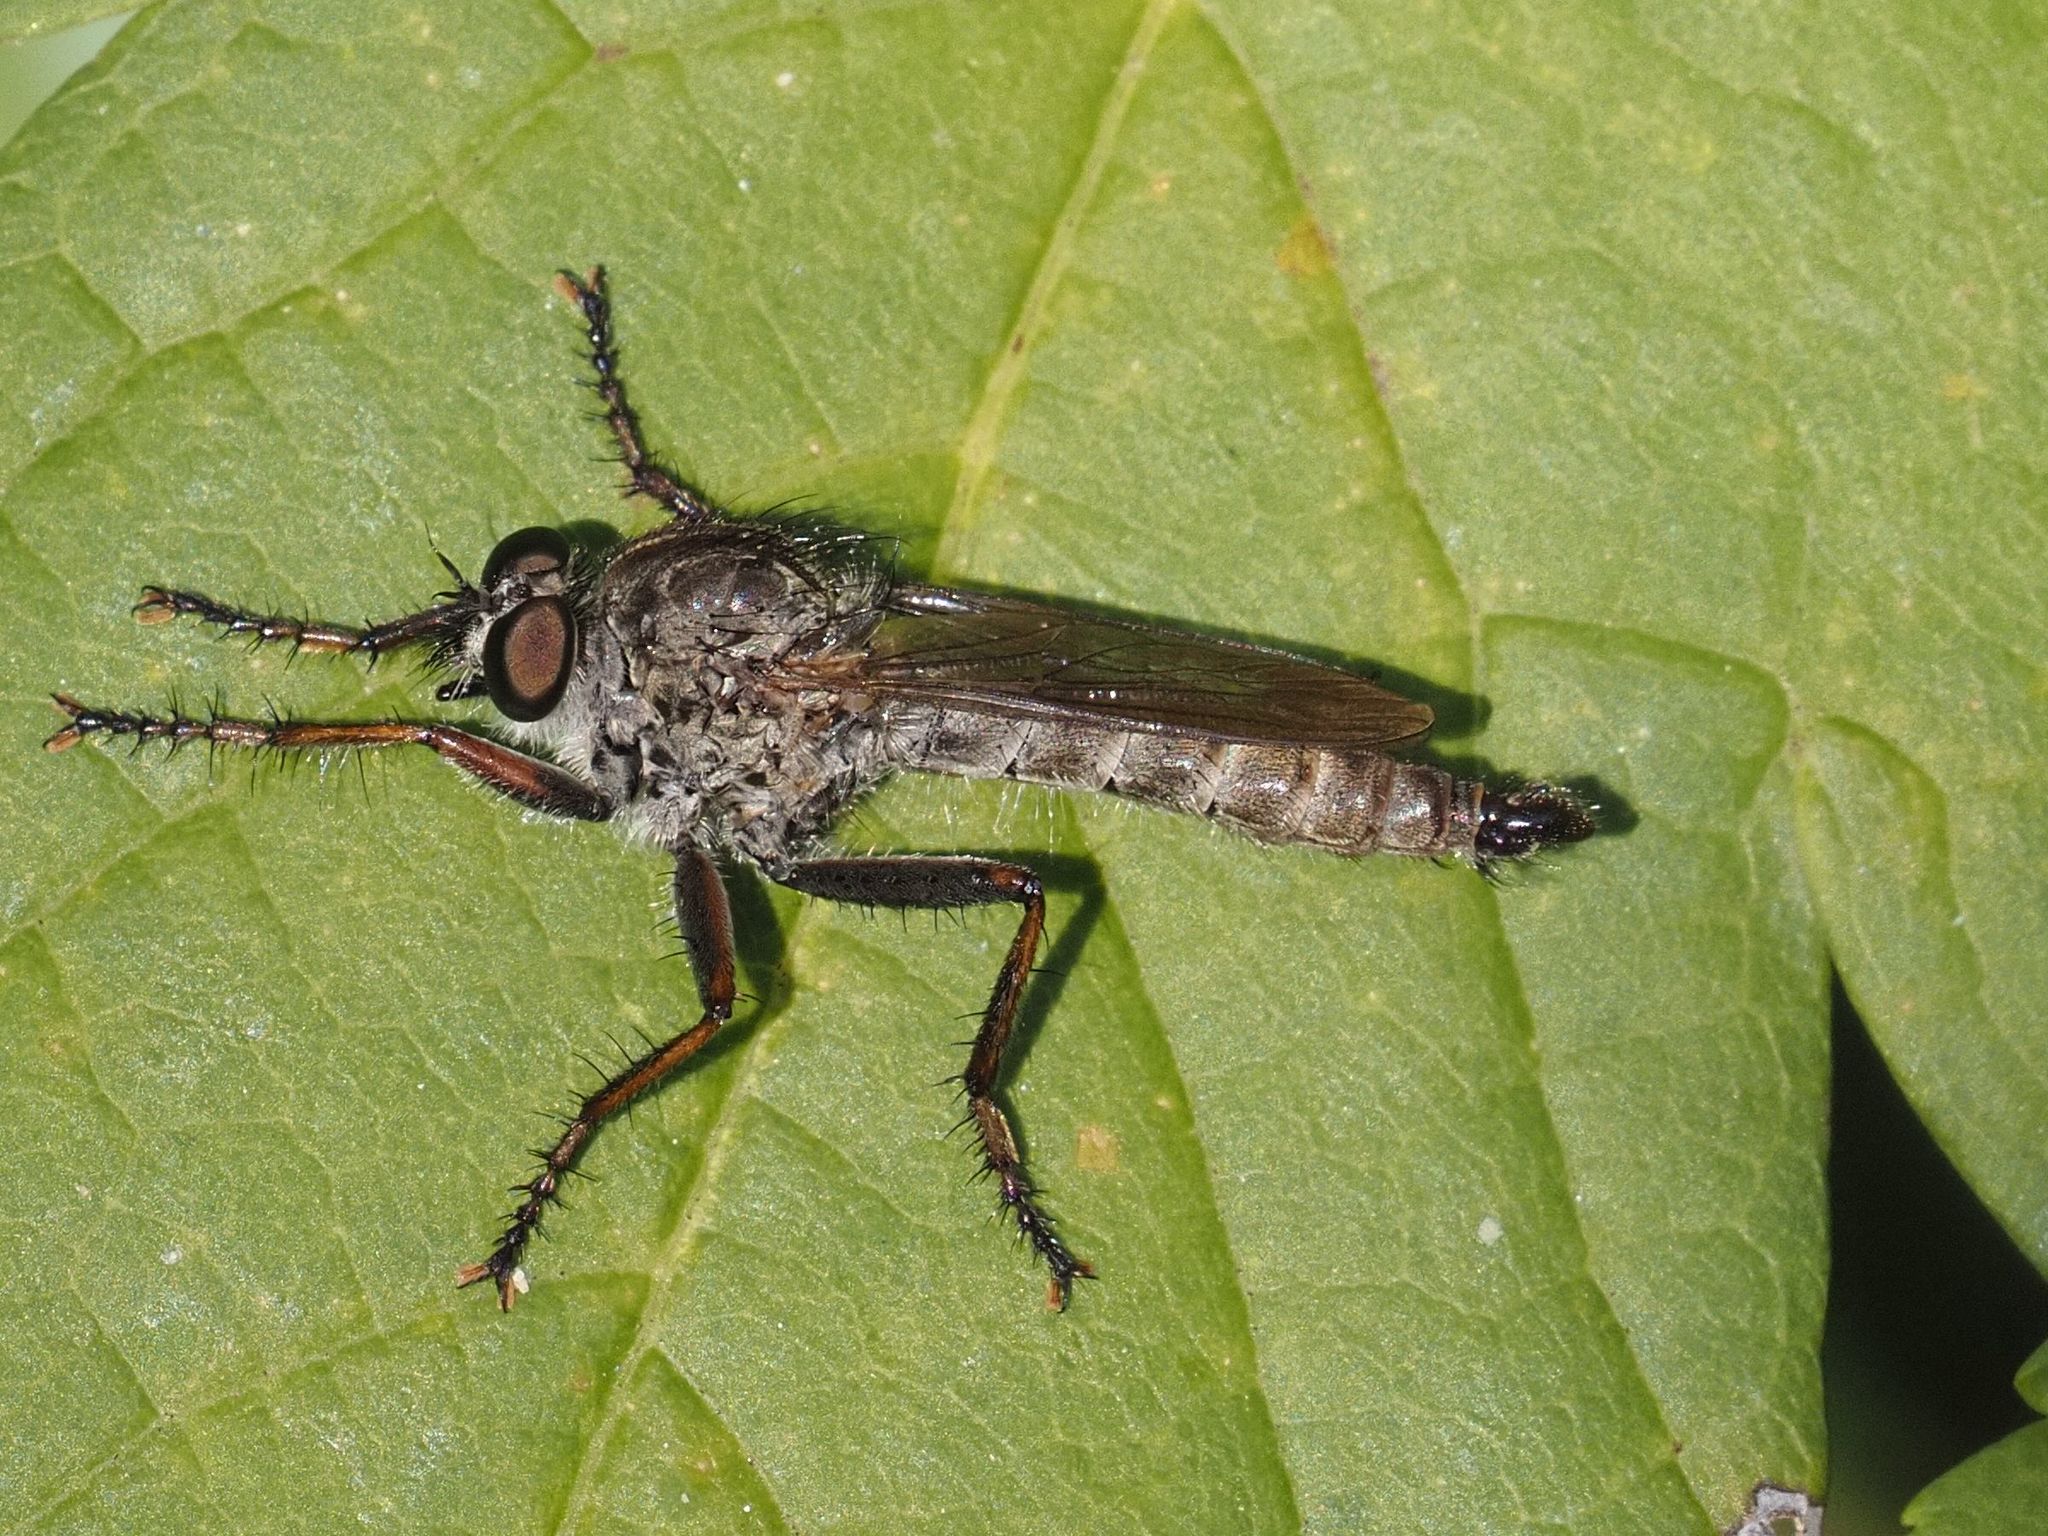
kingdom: Animalia
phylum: Arthropoda
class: Insecta
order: Diptera
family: Asilidae
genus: Machimus
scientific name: Machimus atricapillus
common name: Kite-tailed robberfly
